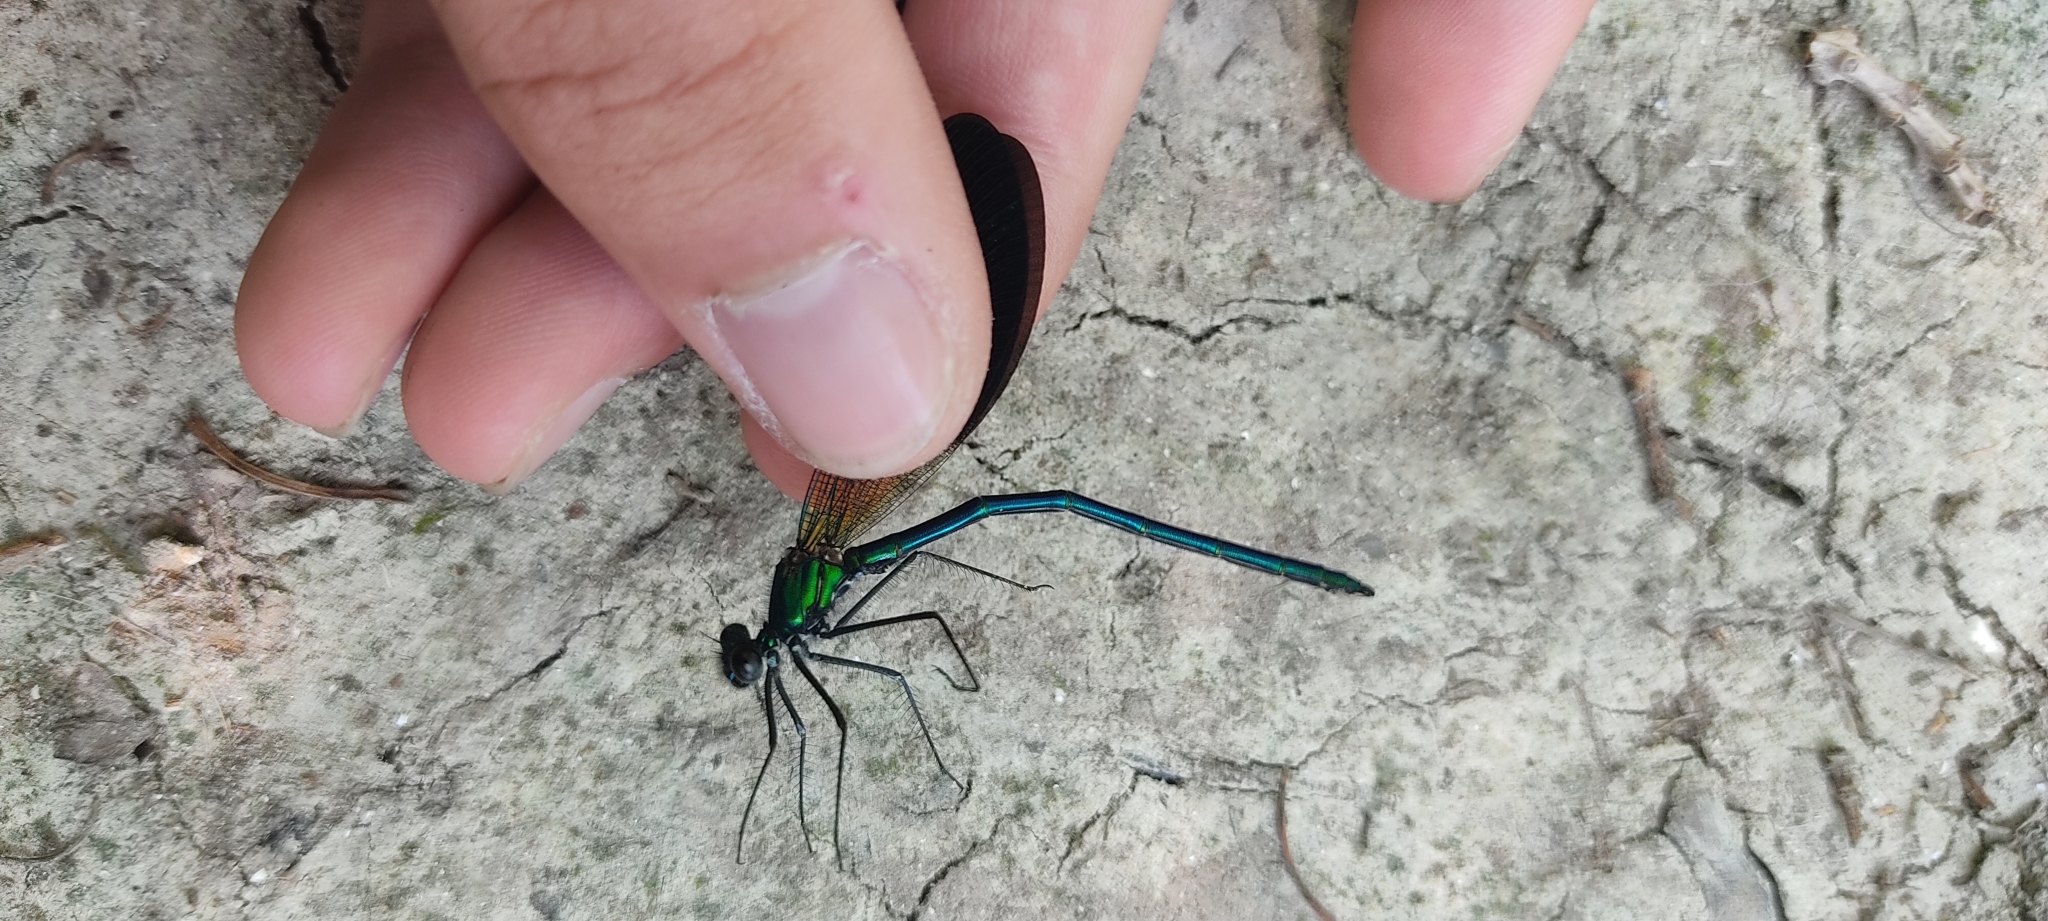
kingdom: Animalia
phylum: Arthropoda
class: Insecta
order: Odonata
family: Calopterygidae
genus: Calopteryx
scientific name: Calopteryx xanthostoma
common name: Western demoiselle
